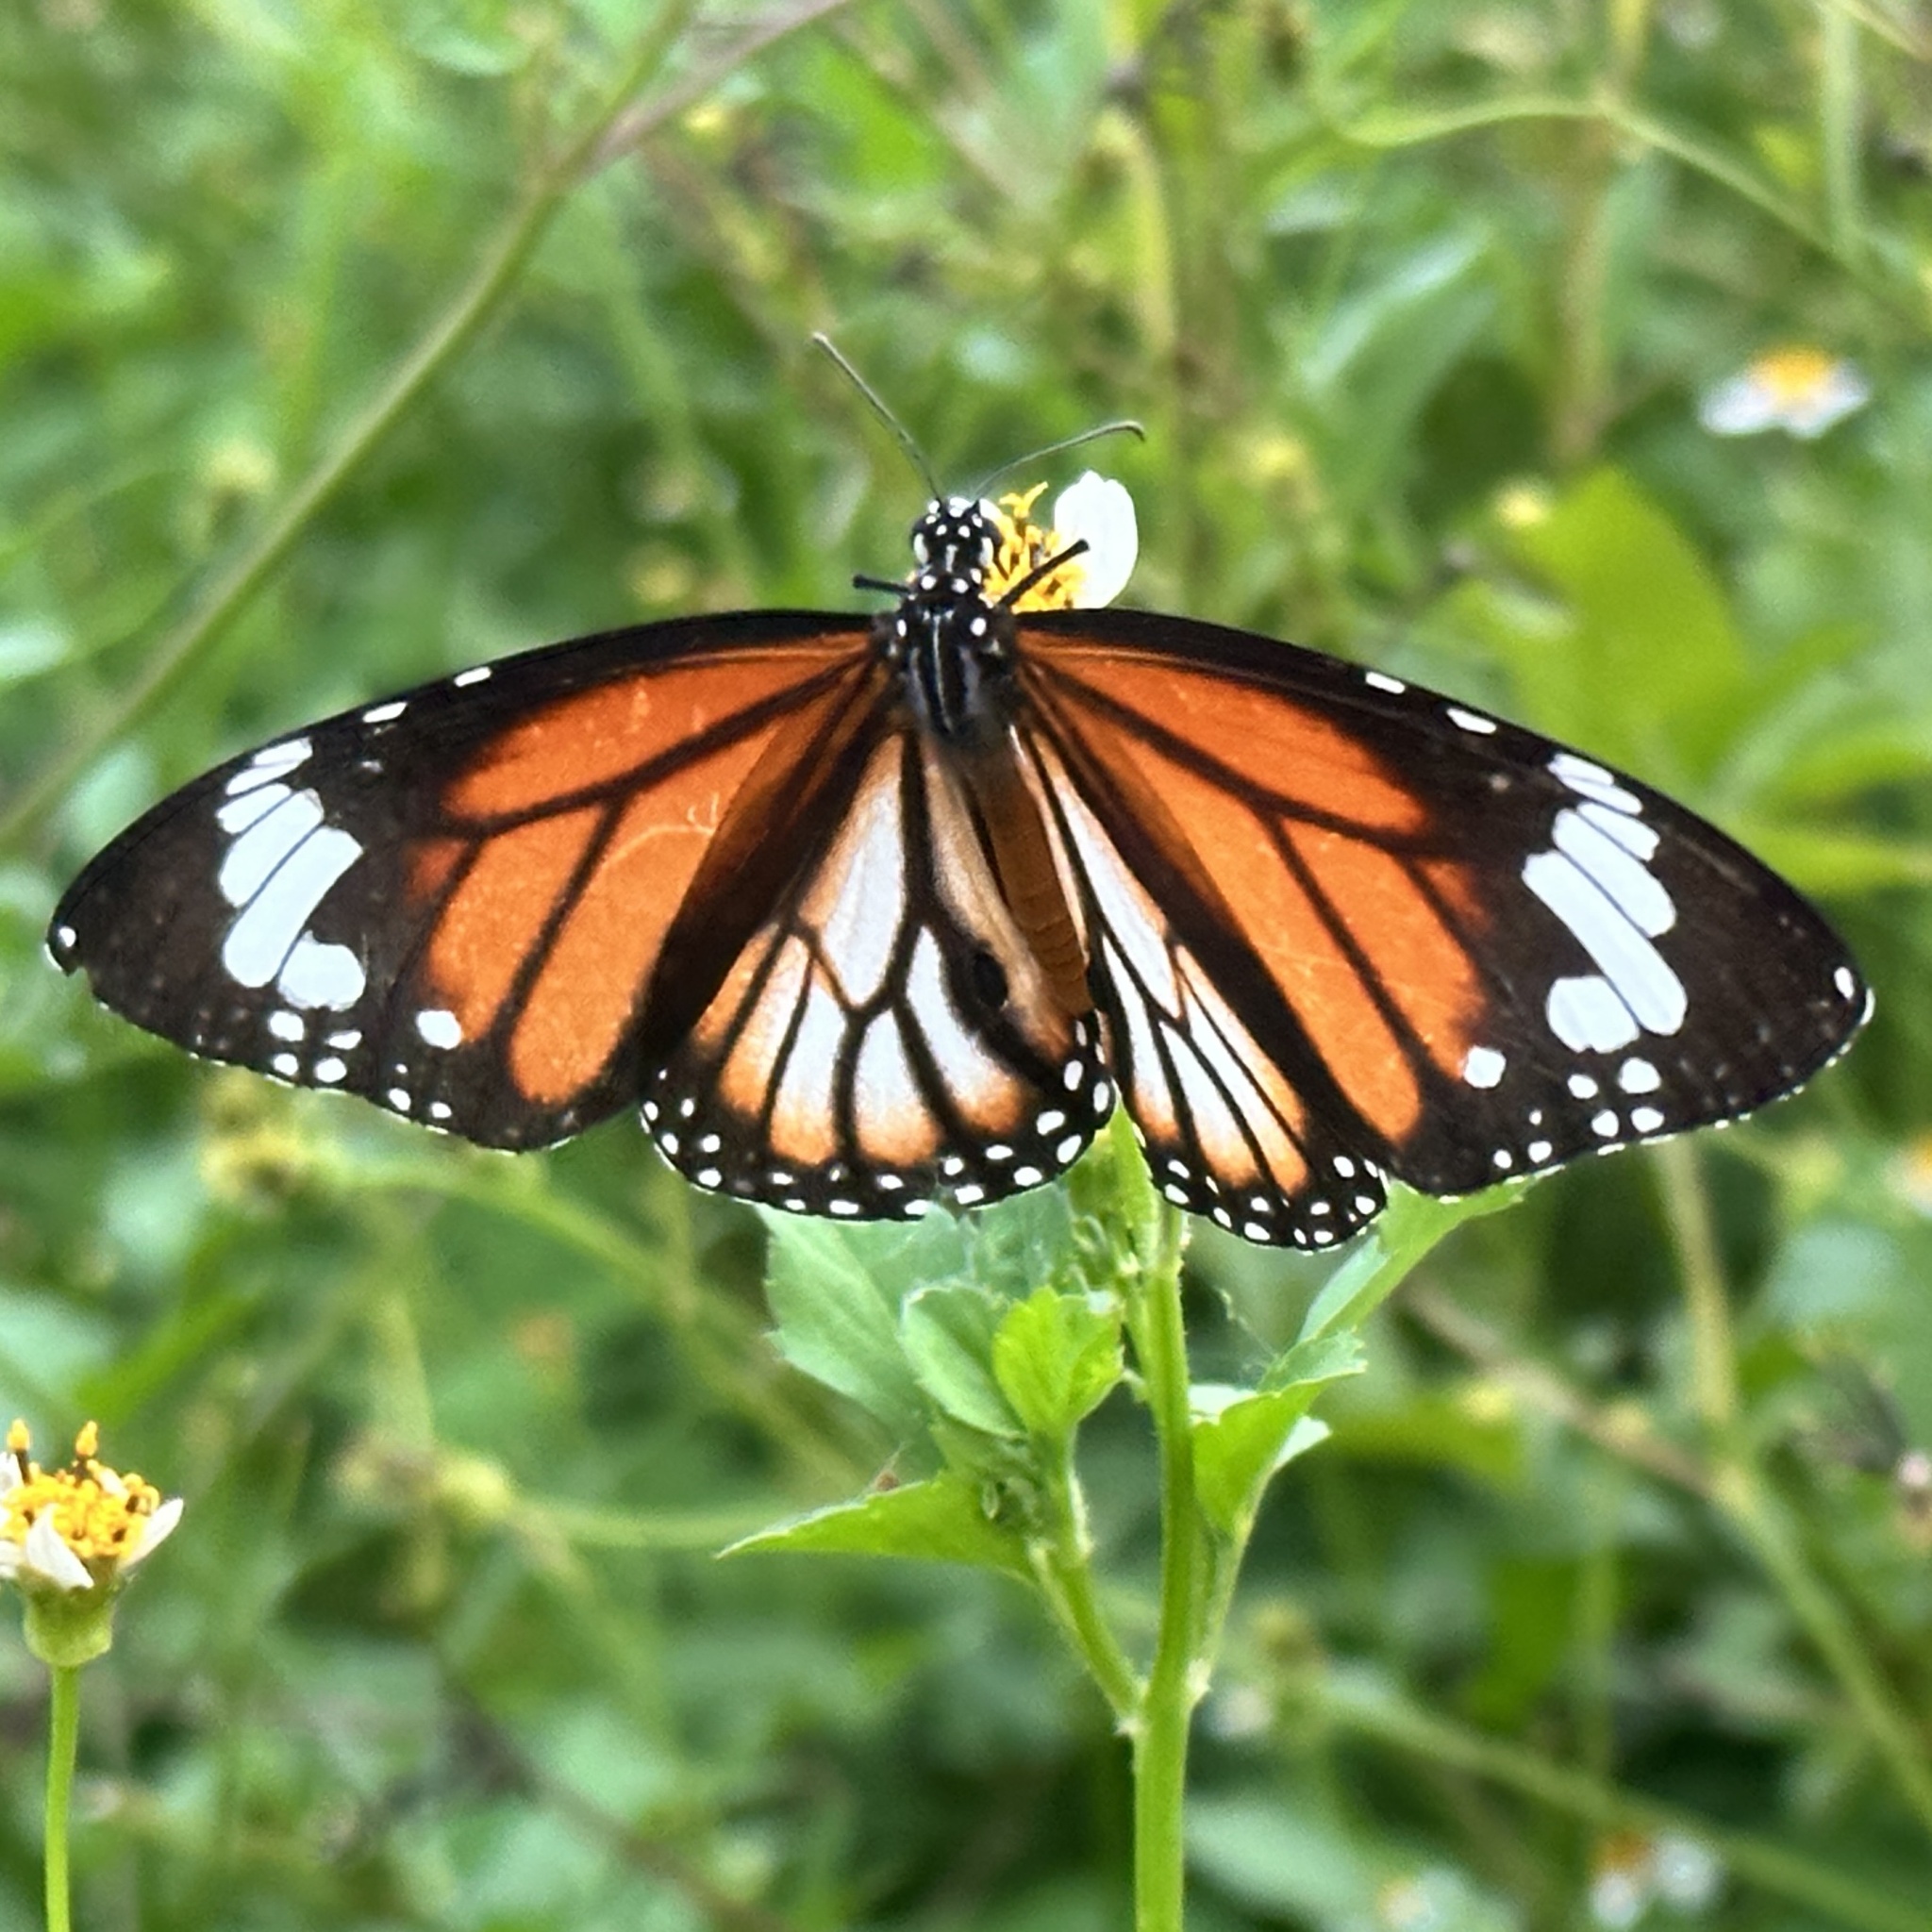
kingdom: Animalia
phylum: Arthropoda
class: Insecta
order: Lepidoptera
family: Nymphalidae
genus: Danaus
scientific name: Danaus genutia
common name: Common tiger butterfly
